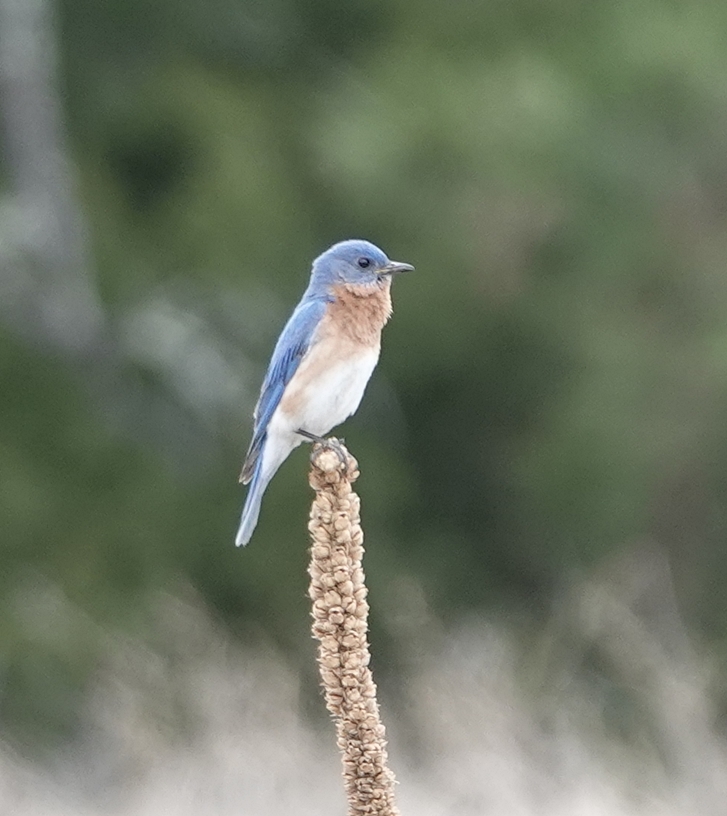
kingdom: Animalia
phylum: Chordata
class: Aves
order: Passeriformes
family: Turdidae
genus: Sialia
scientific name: Sialia sialis
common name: Eastern bluebird
